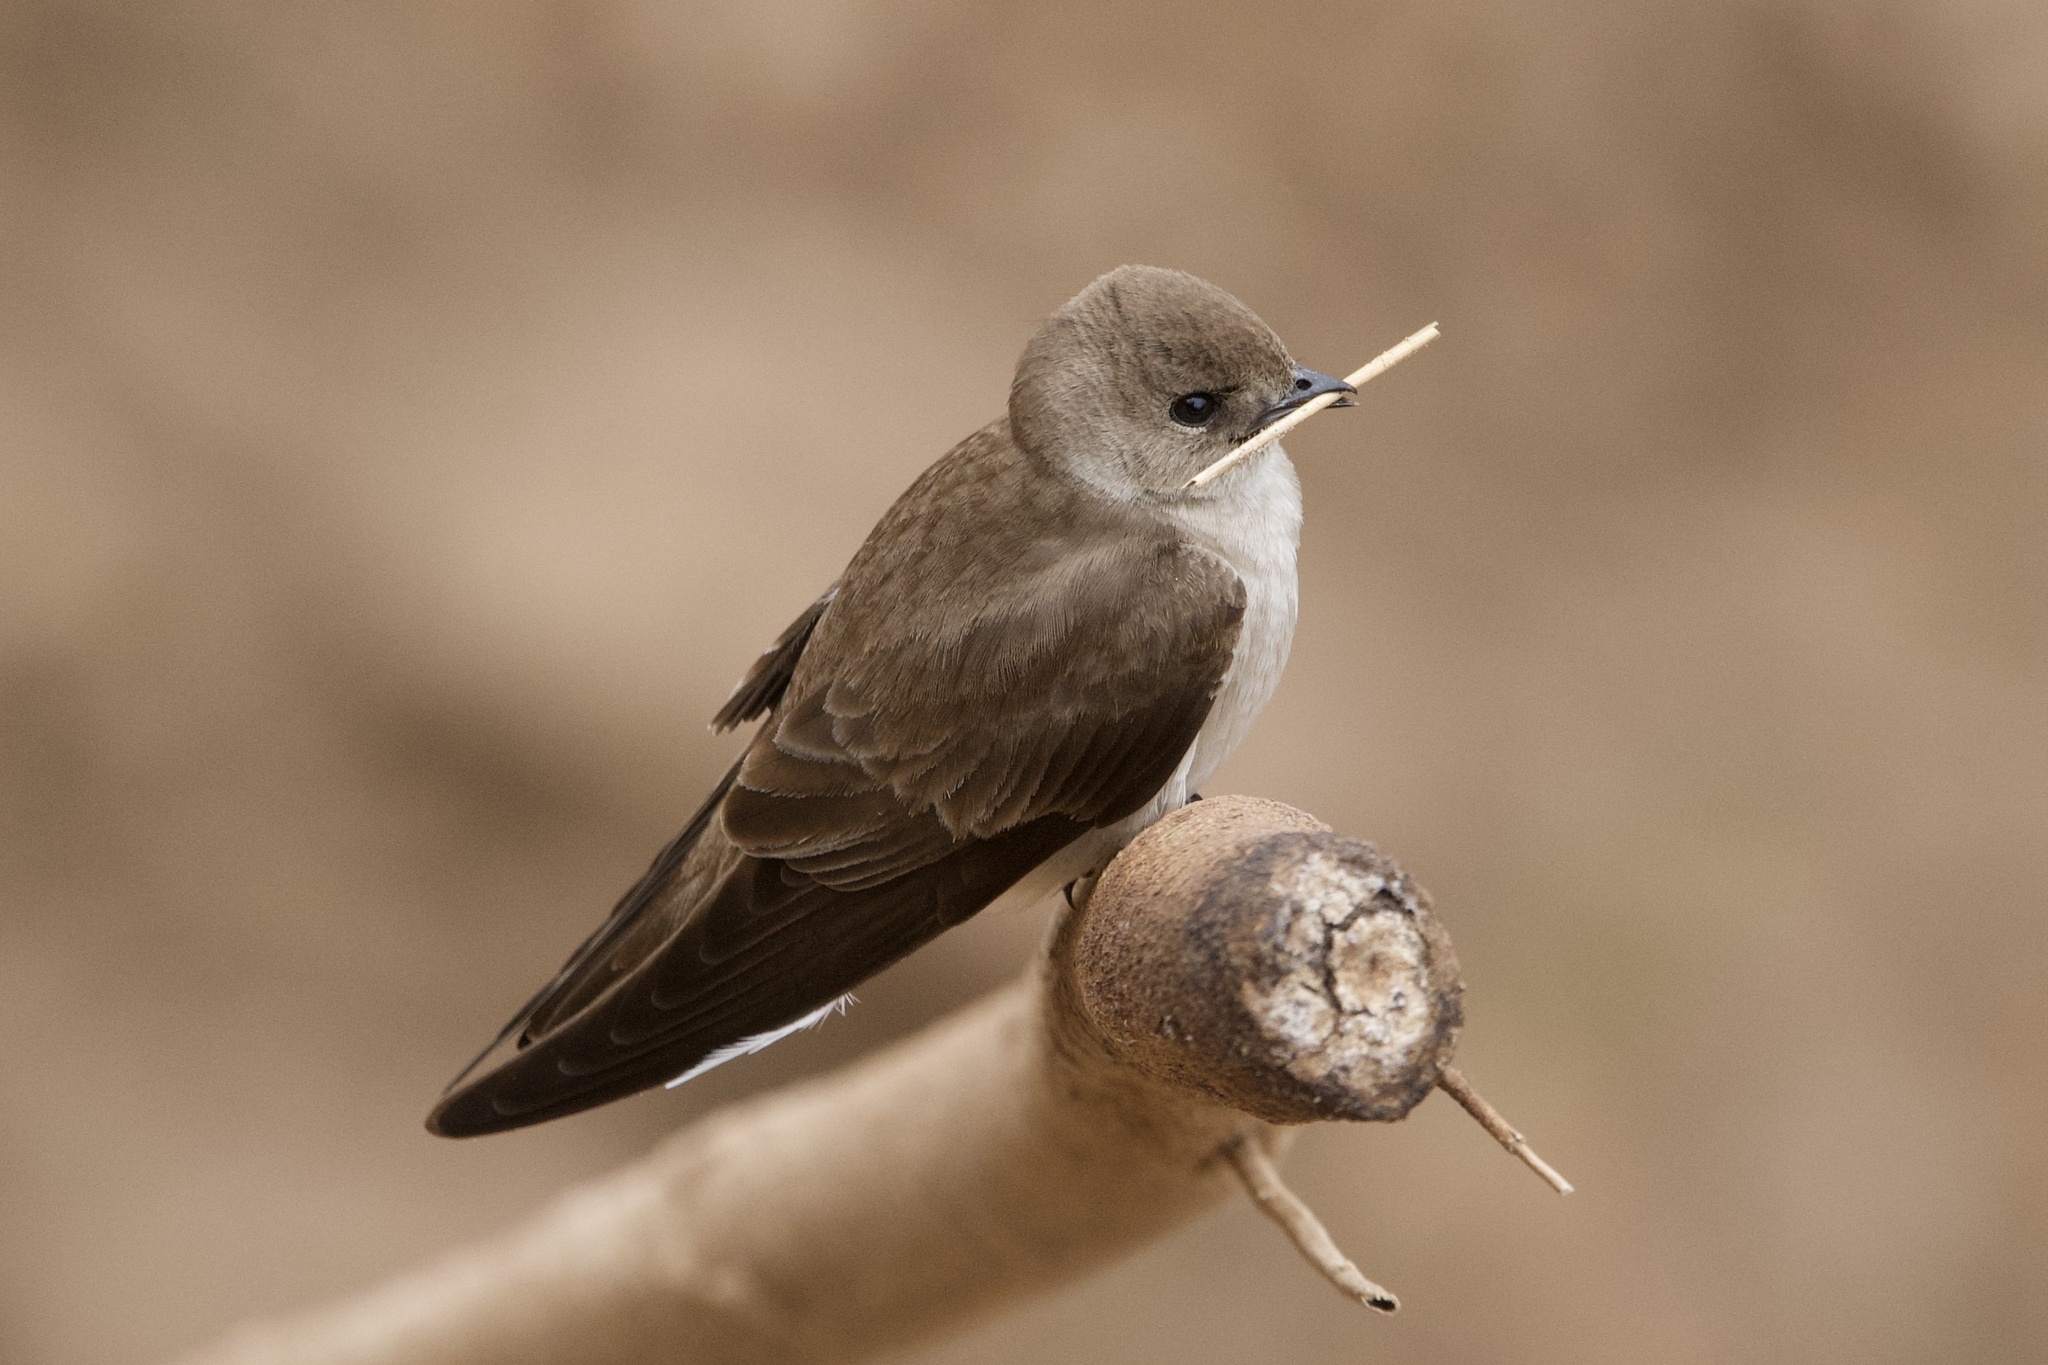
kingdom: Animalia
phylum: Chordata
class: Aves
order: Passeriformes
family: Hirundinidae
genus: Stelgidopteryx
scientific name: Stelgidopteryx serripennis
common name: Northern rough-winged swallow
